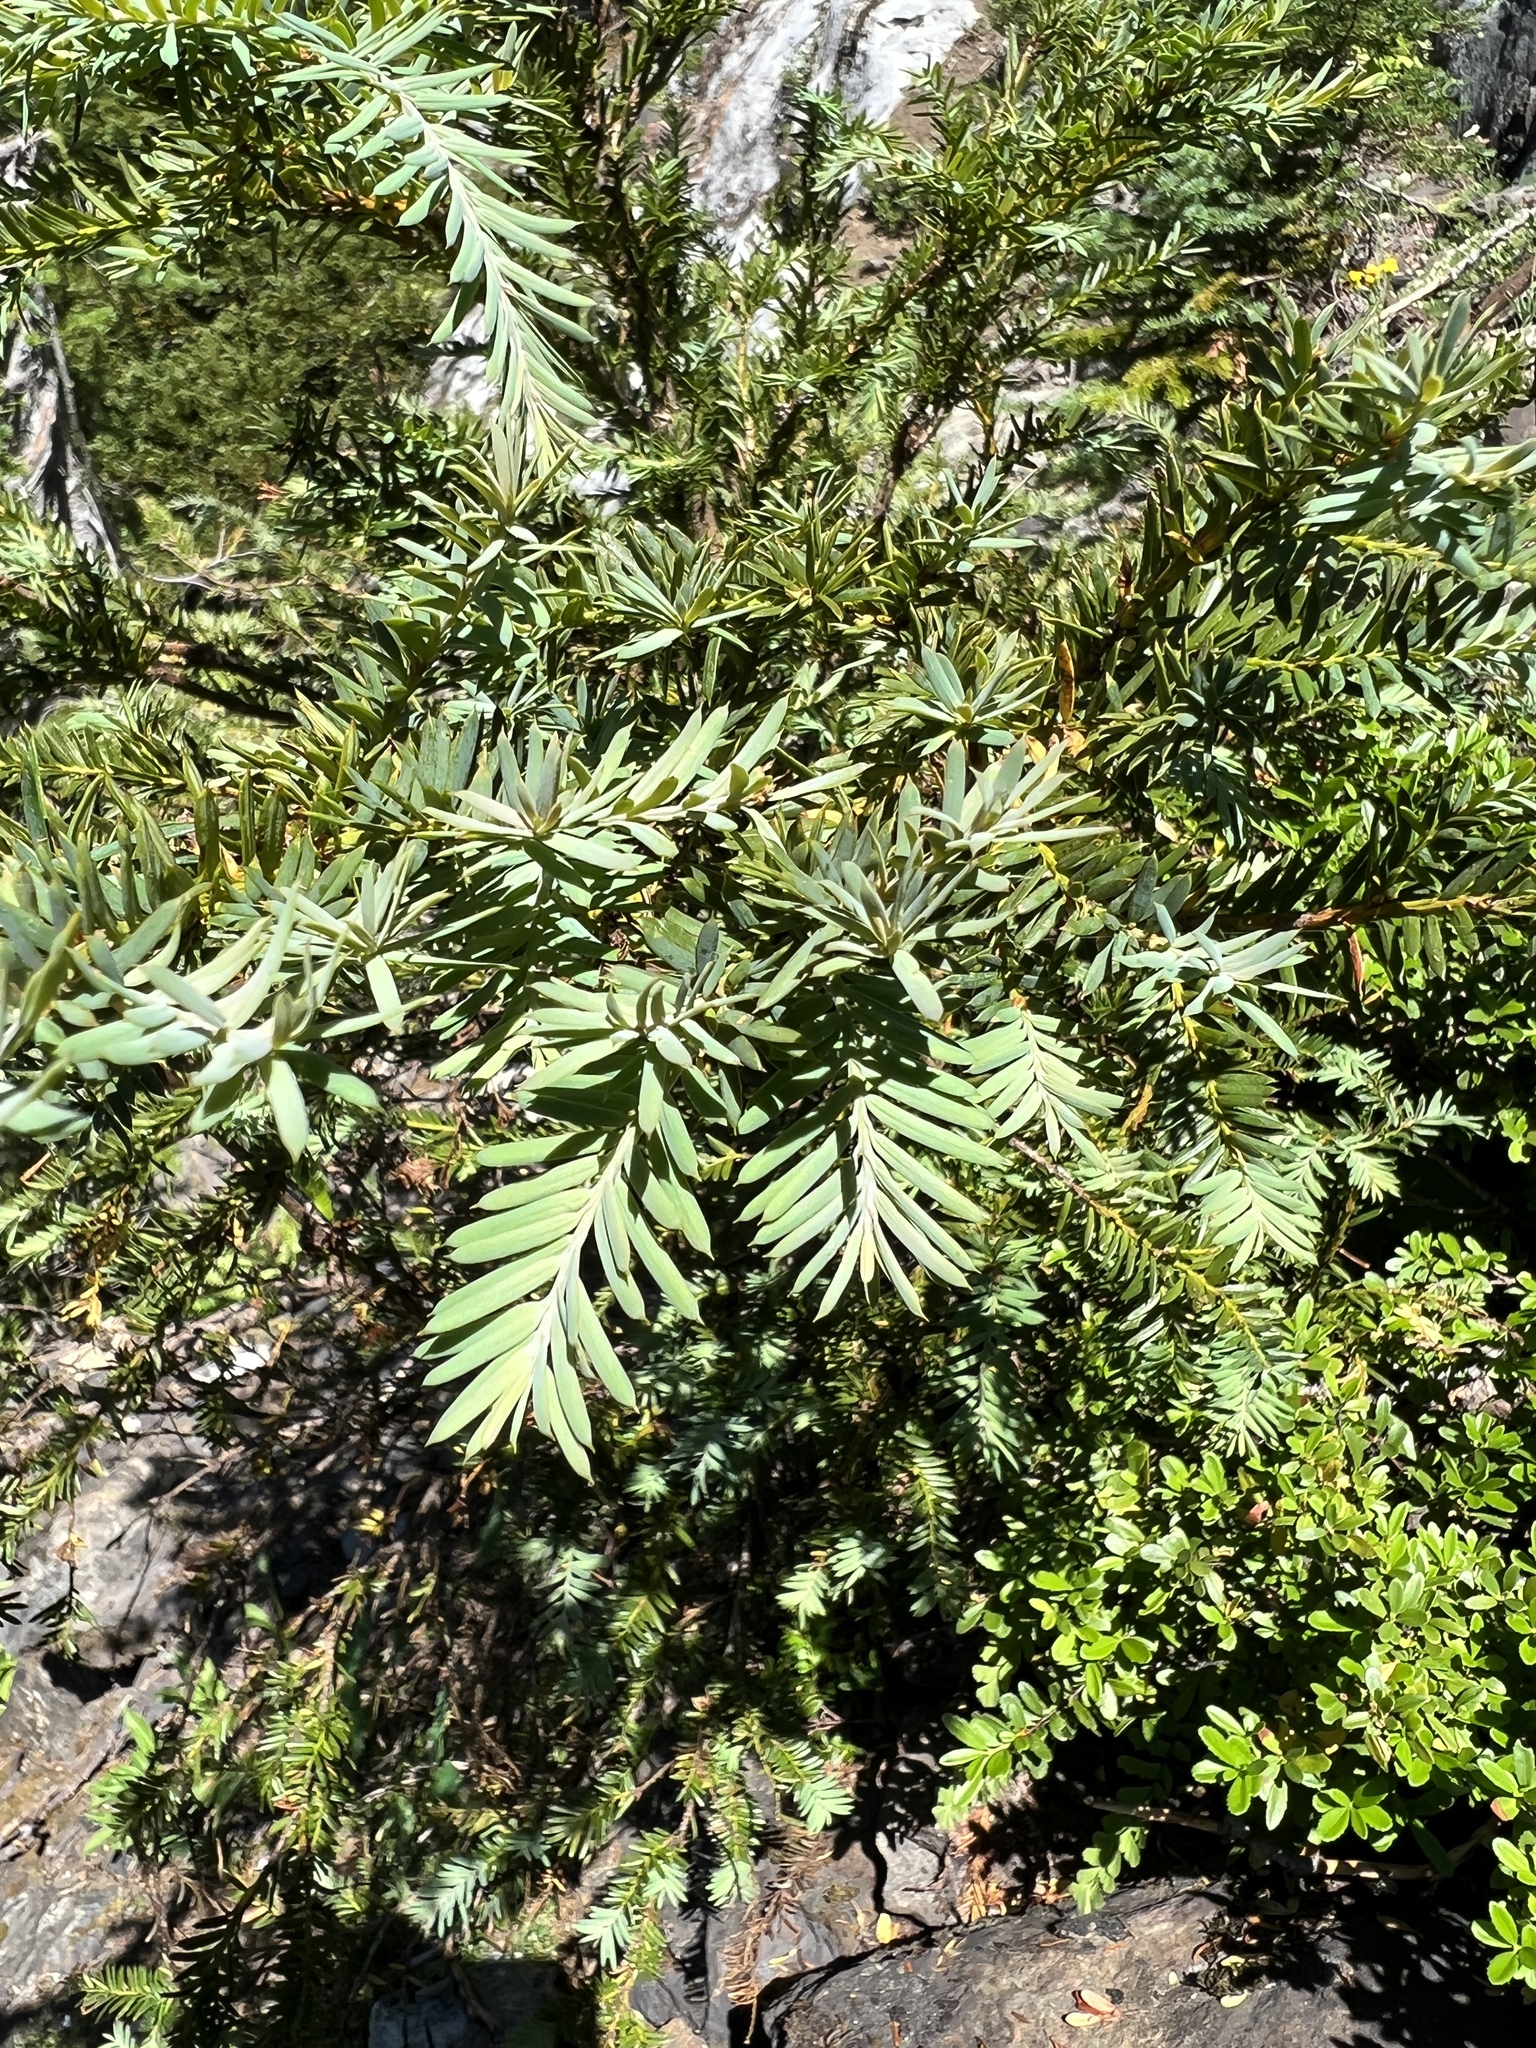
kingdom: Plantae
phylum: Tracheophyta
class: Pinopsida
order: Pinales
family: Taxaceae
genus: Taxus
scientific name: Taxus brevifolia
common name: Pacific yew
